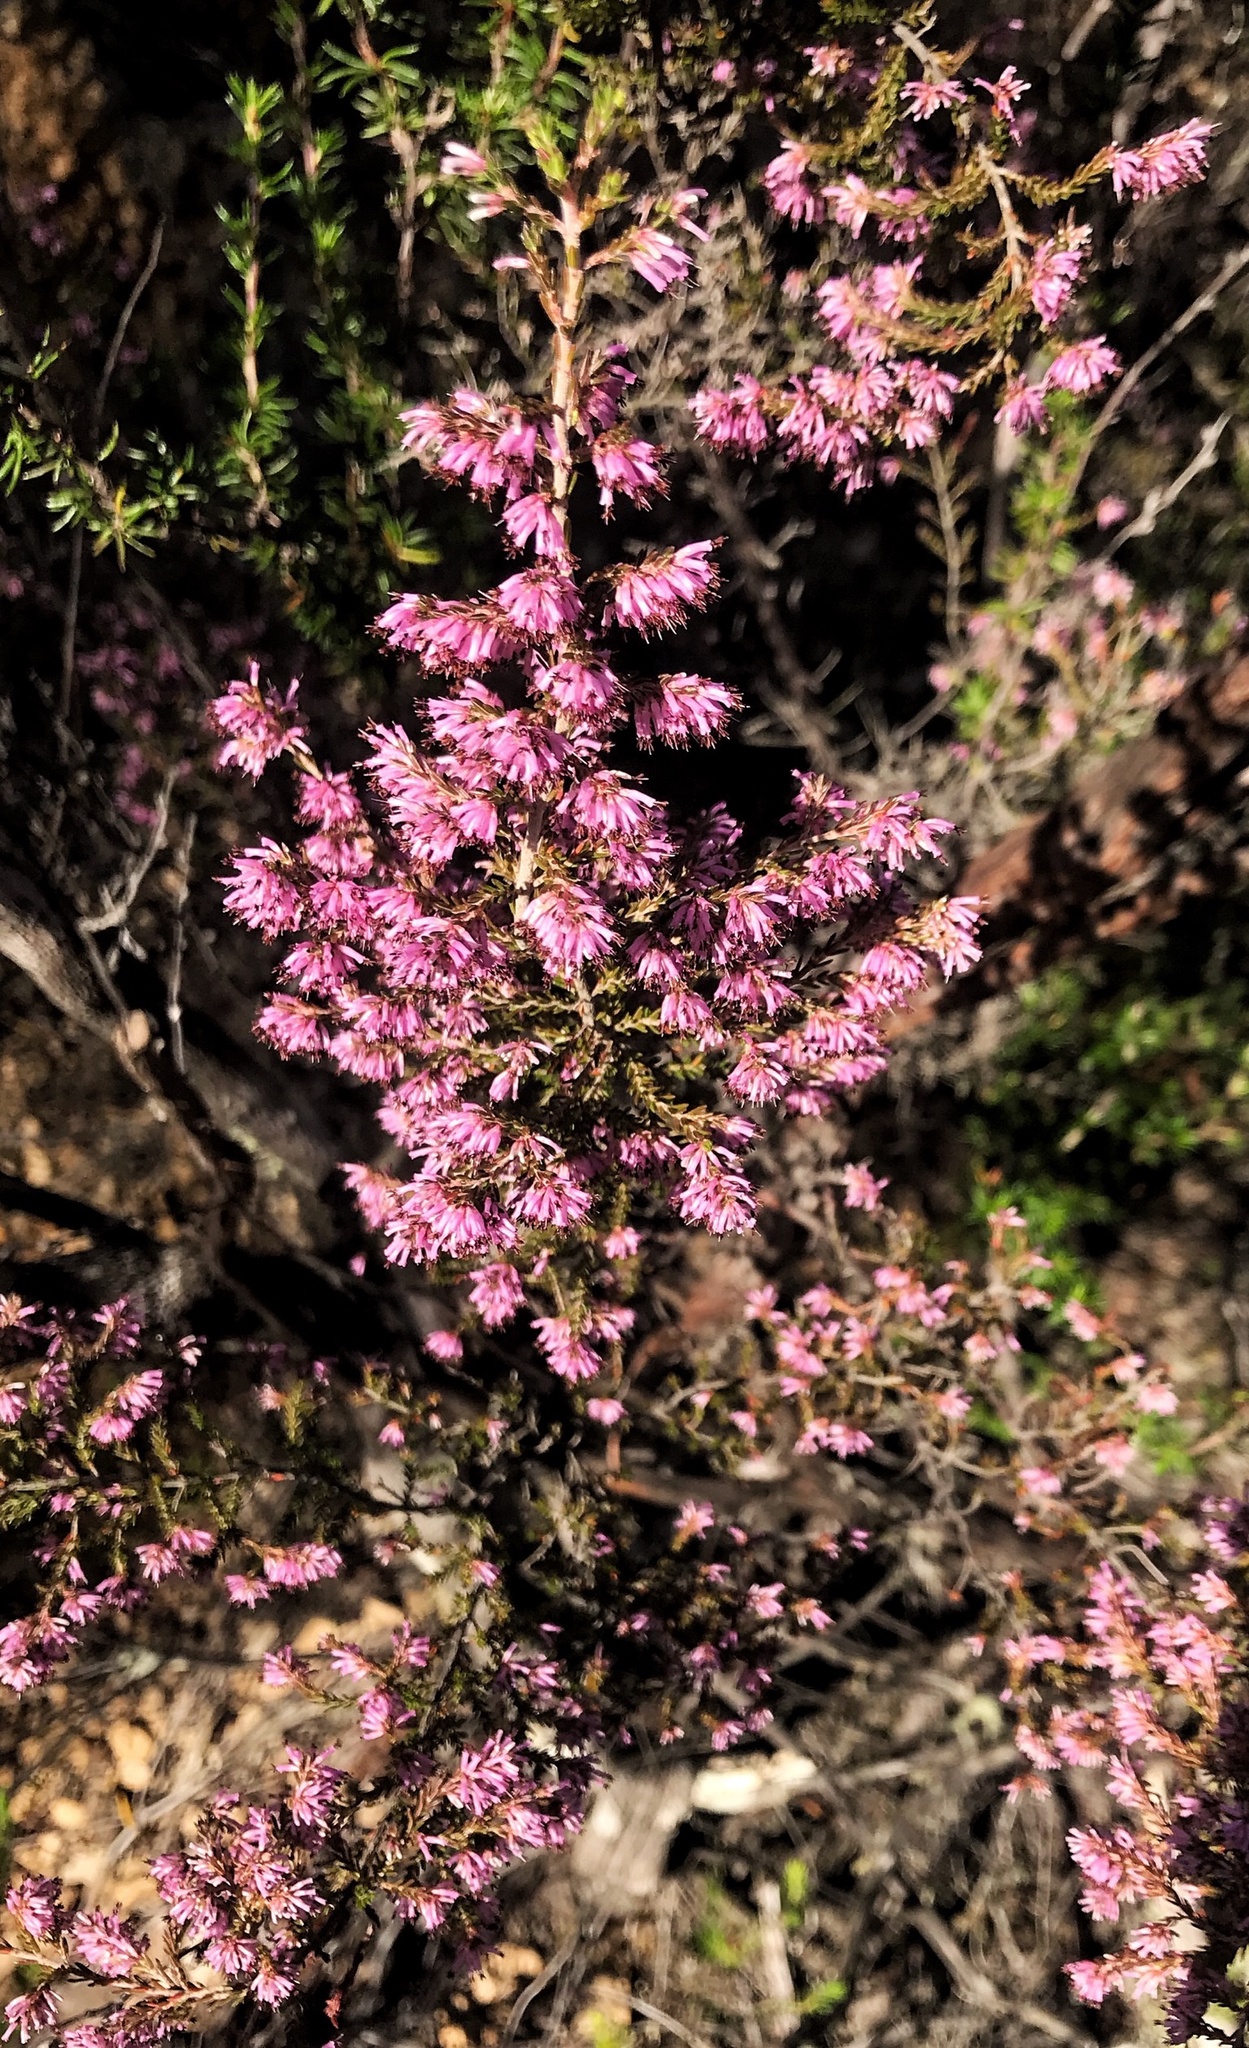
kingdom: Plantae
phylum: Tracheophyta
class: Magnoliopsida
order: Ericales
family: Ericaceae
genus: Erica
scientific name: Erica uberiflora
